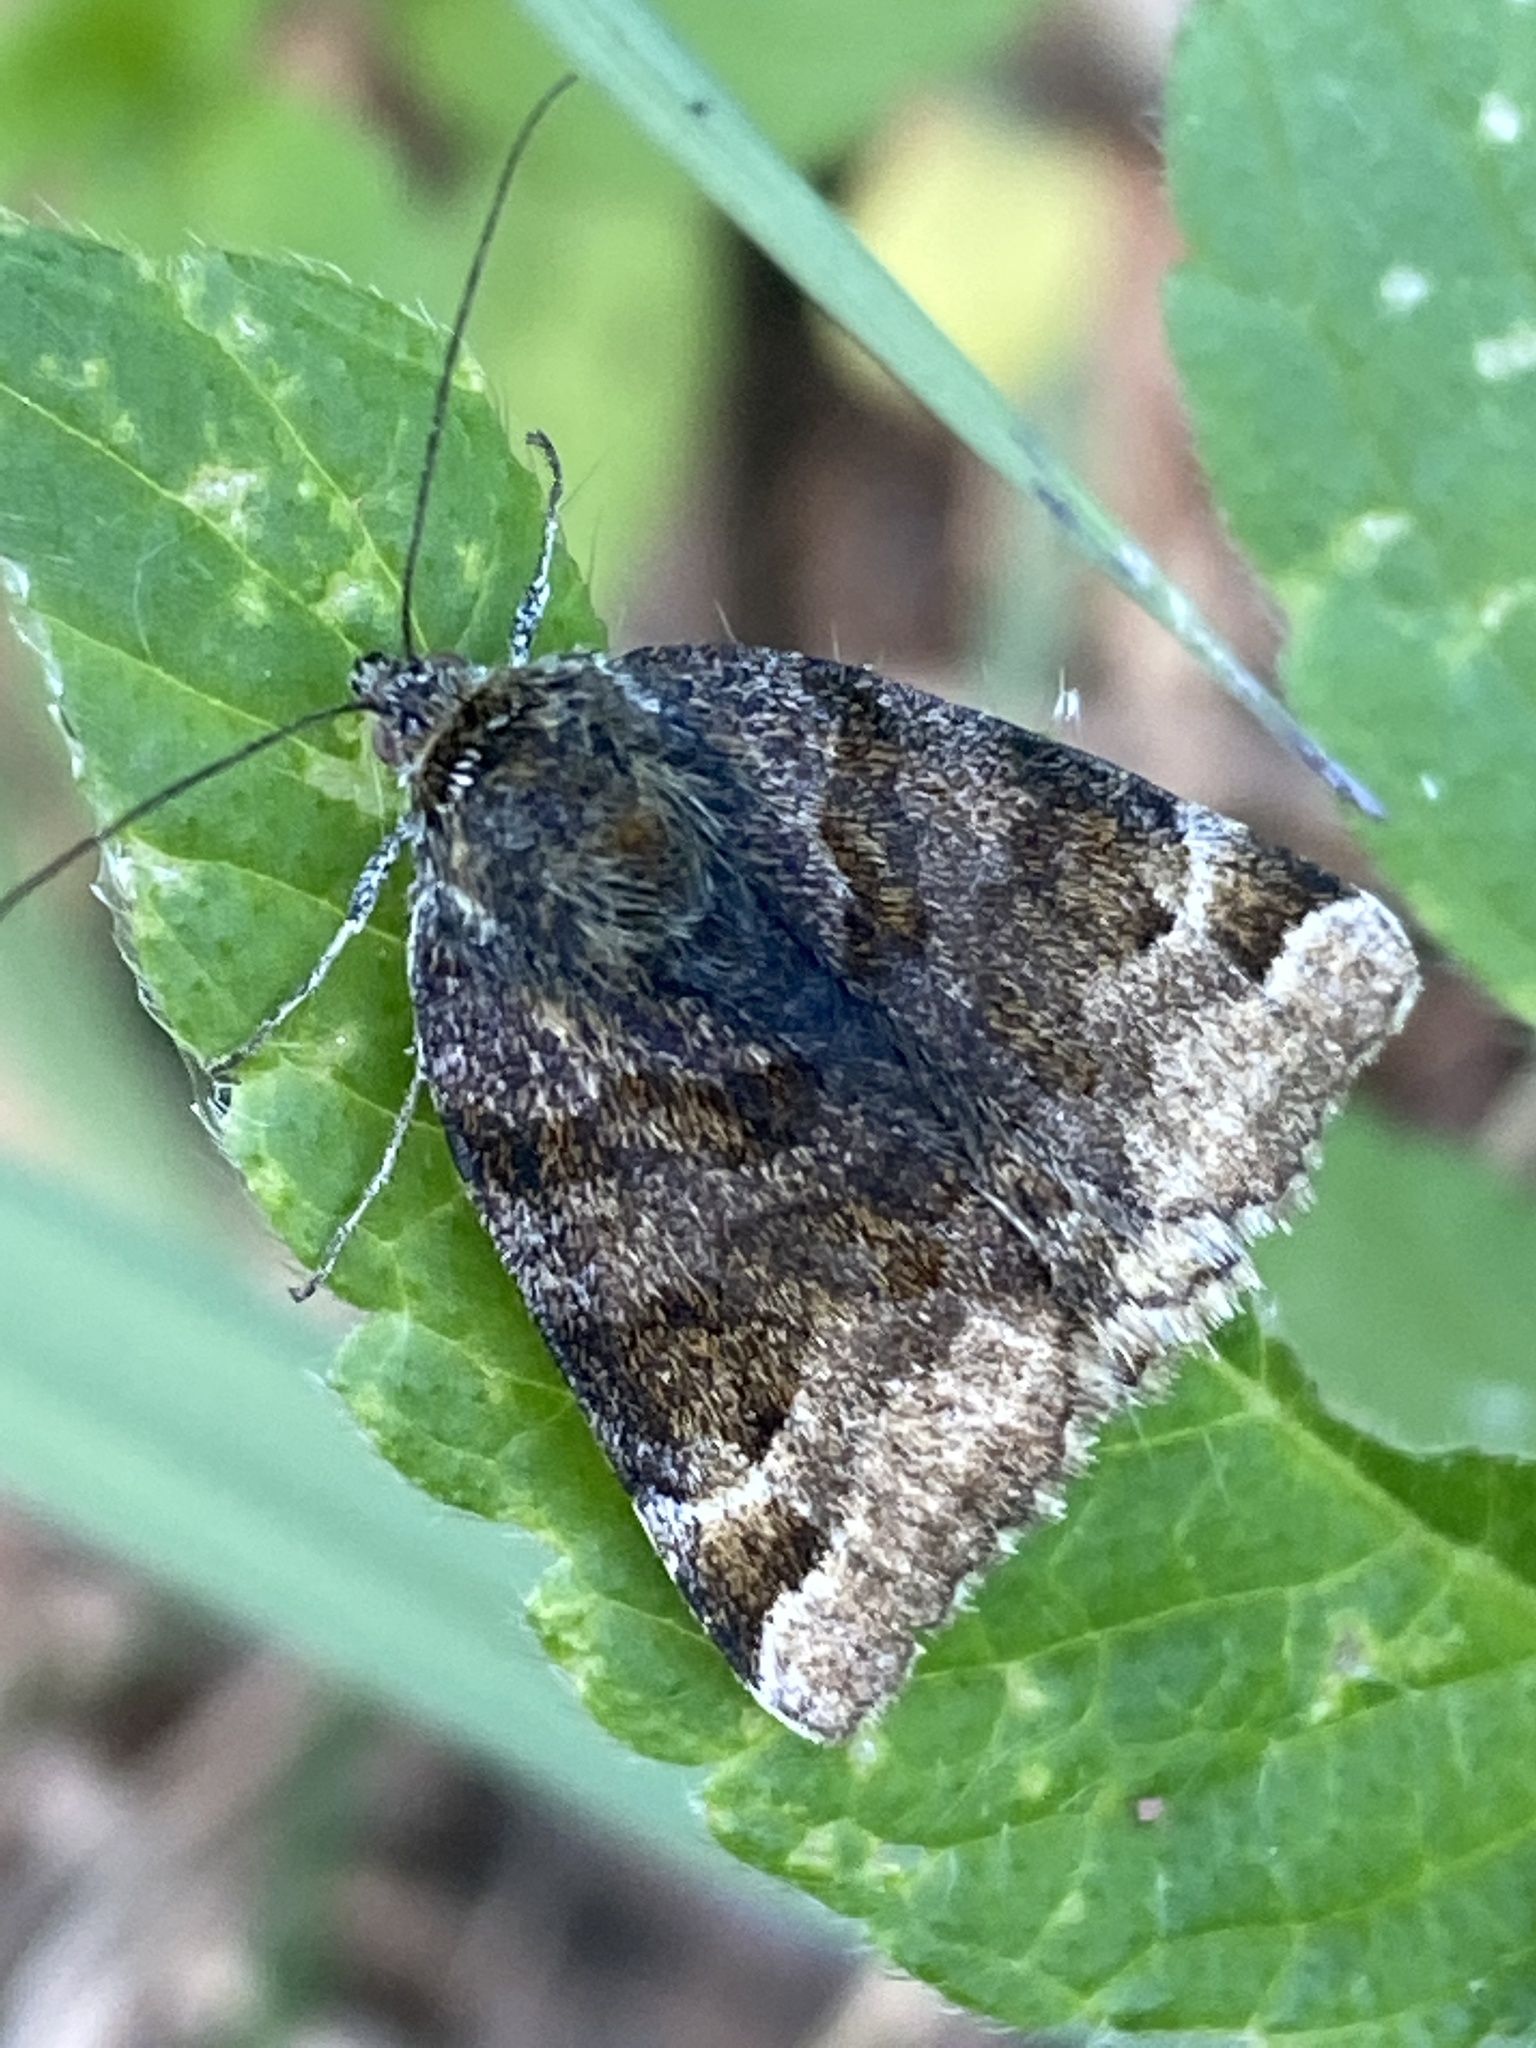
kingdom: Animalia
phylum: Arthropoda
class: Insecta
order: Lepidoptera
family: Erebidae
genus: Euclidia
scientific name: Euclidia glyphica
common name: Burnet companion
